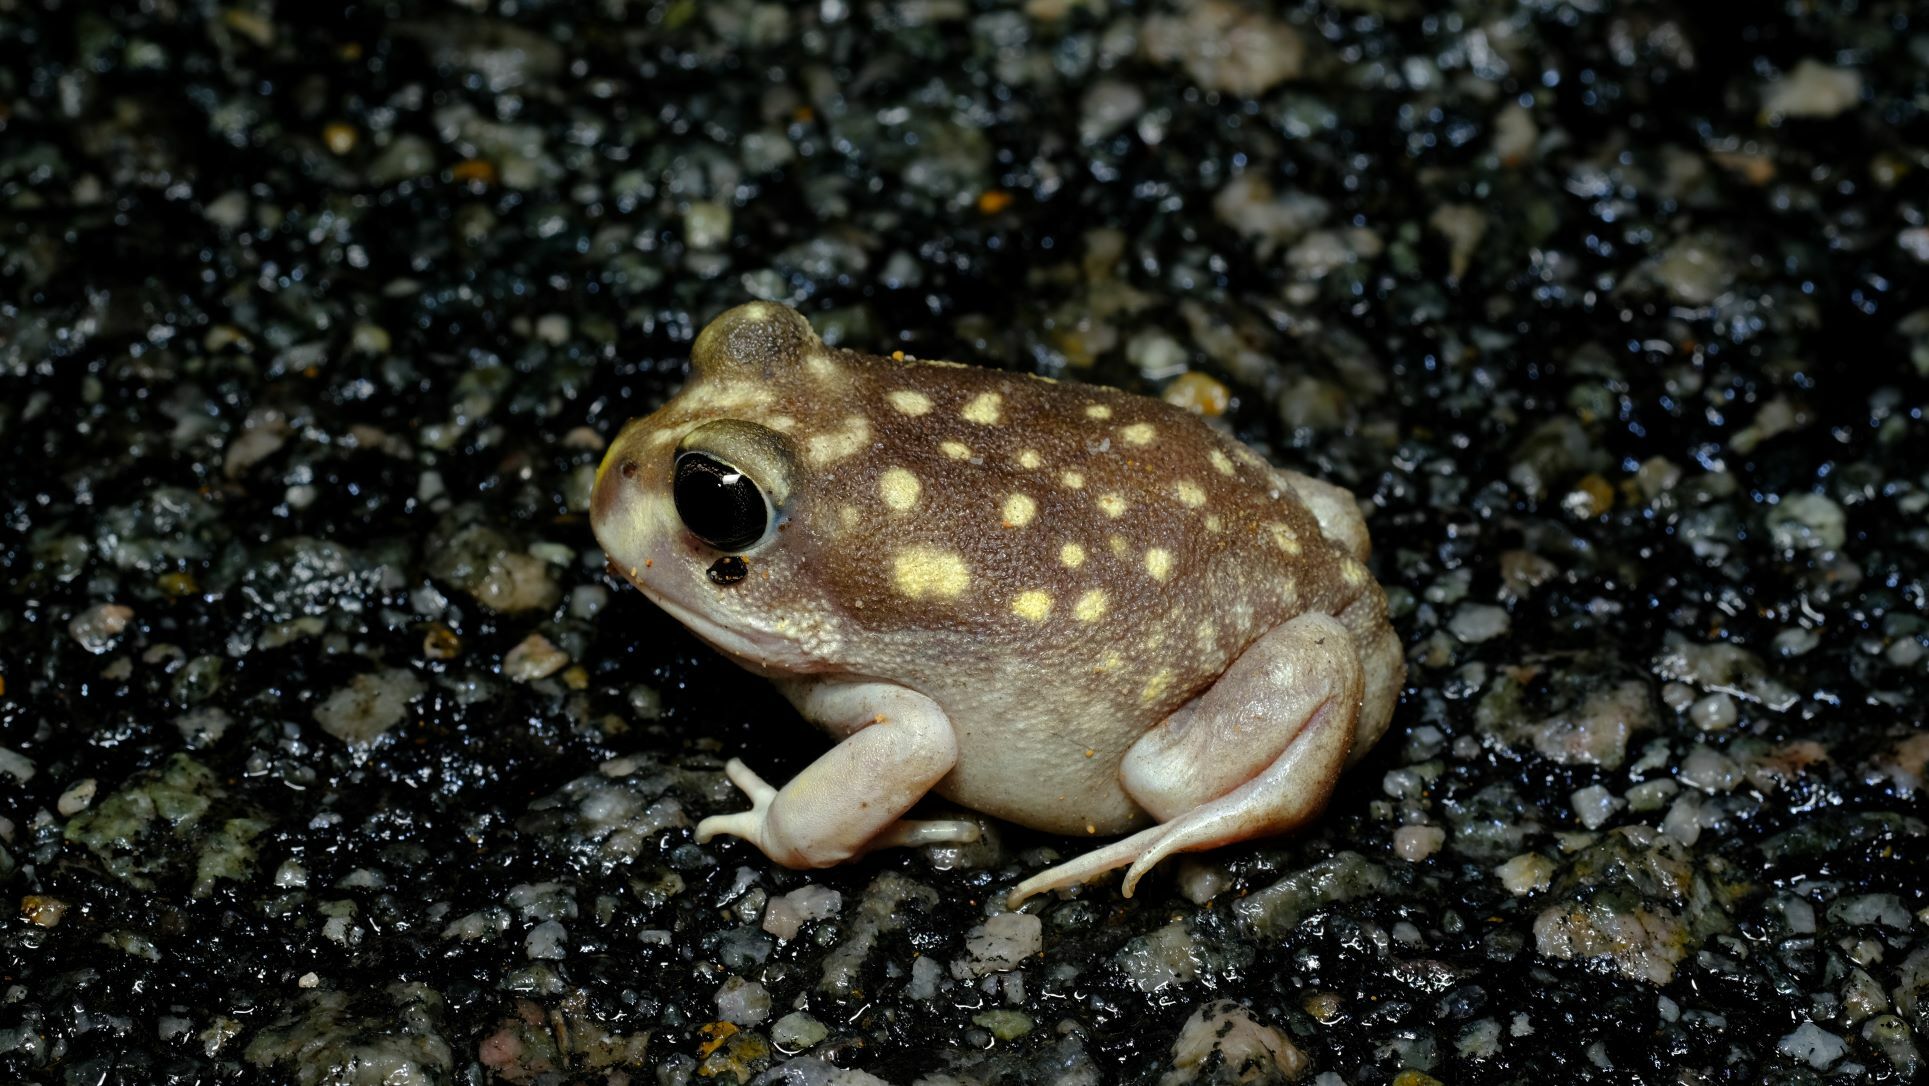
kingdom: Animalia
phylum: Chordata
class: Amphibia
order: Anura
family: Limnodynastidae
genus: Heleioporus
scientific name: Heleioporus albopunctatus
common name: Western spotted frog
